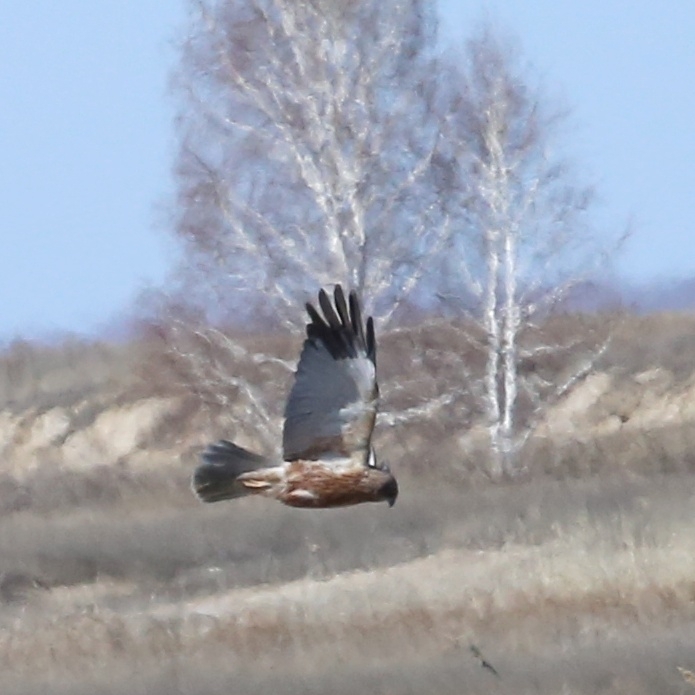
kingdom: Animalia
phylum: Chordata
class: Aves
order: Accipitriformes
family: Accipitridae
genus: Circus
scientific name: Circus aeruginosus
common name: Western marsh harrier
